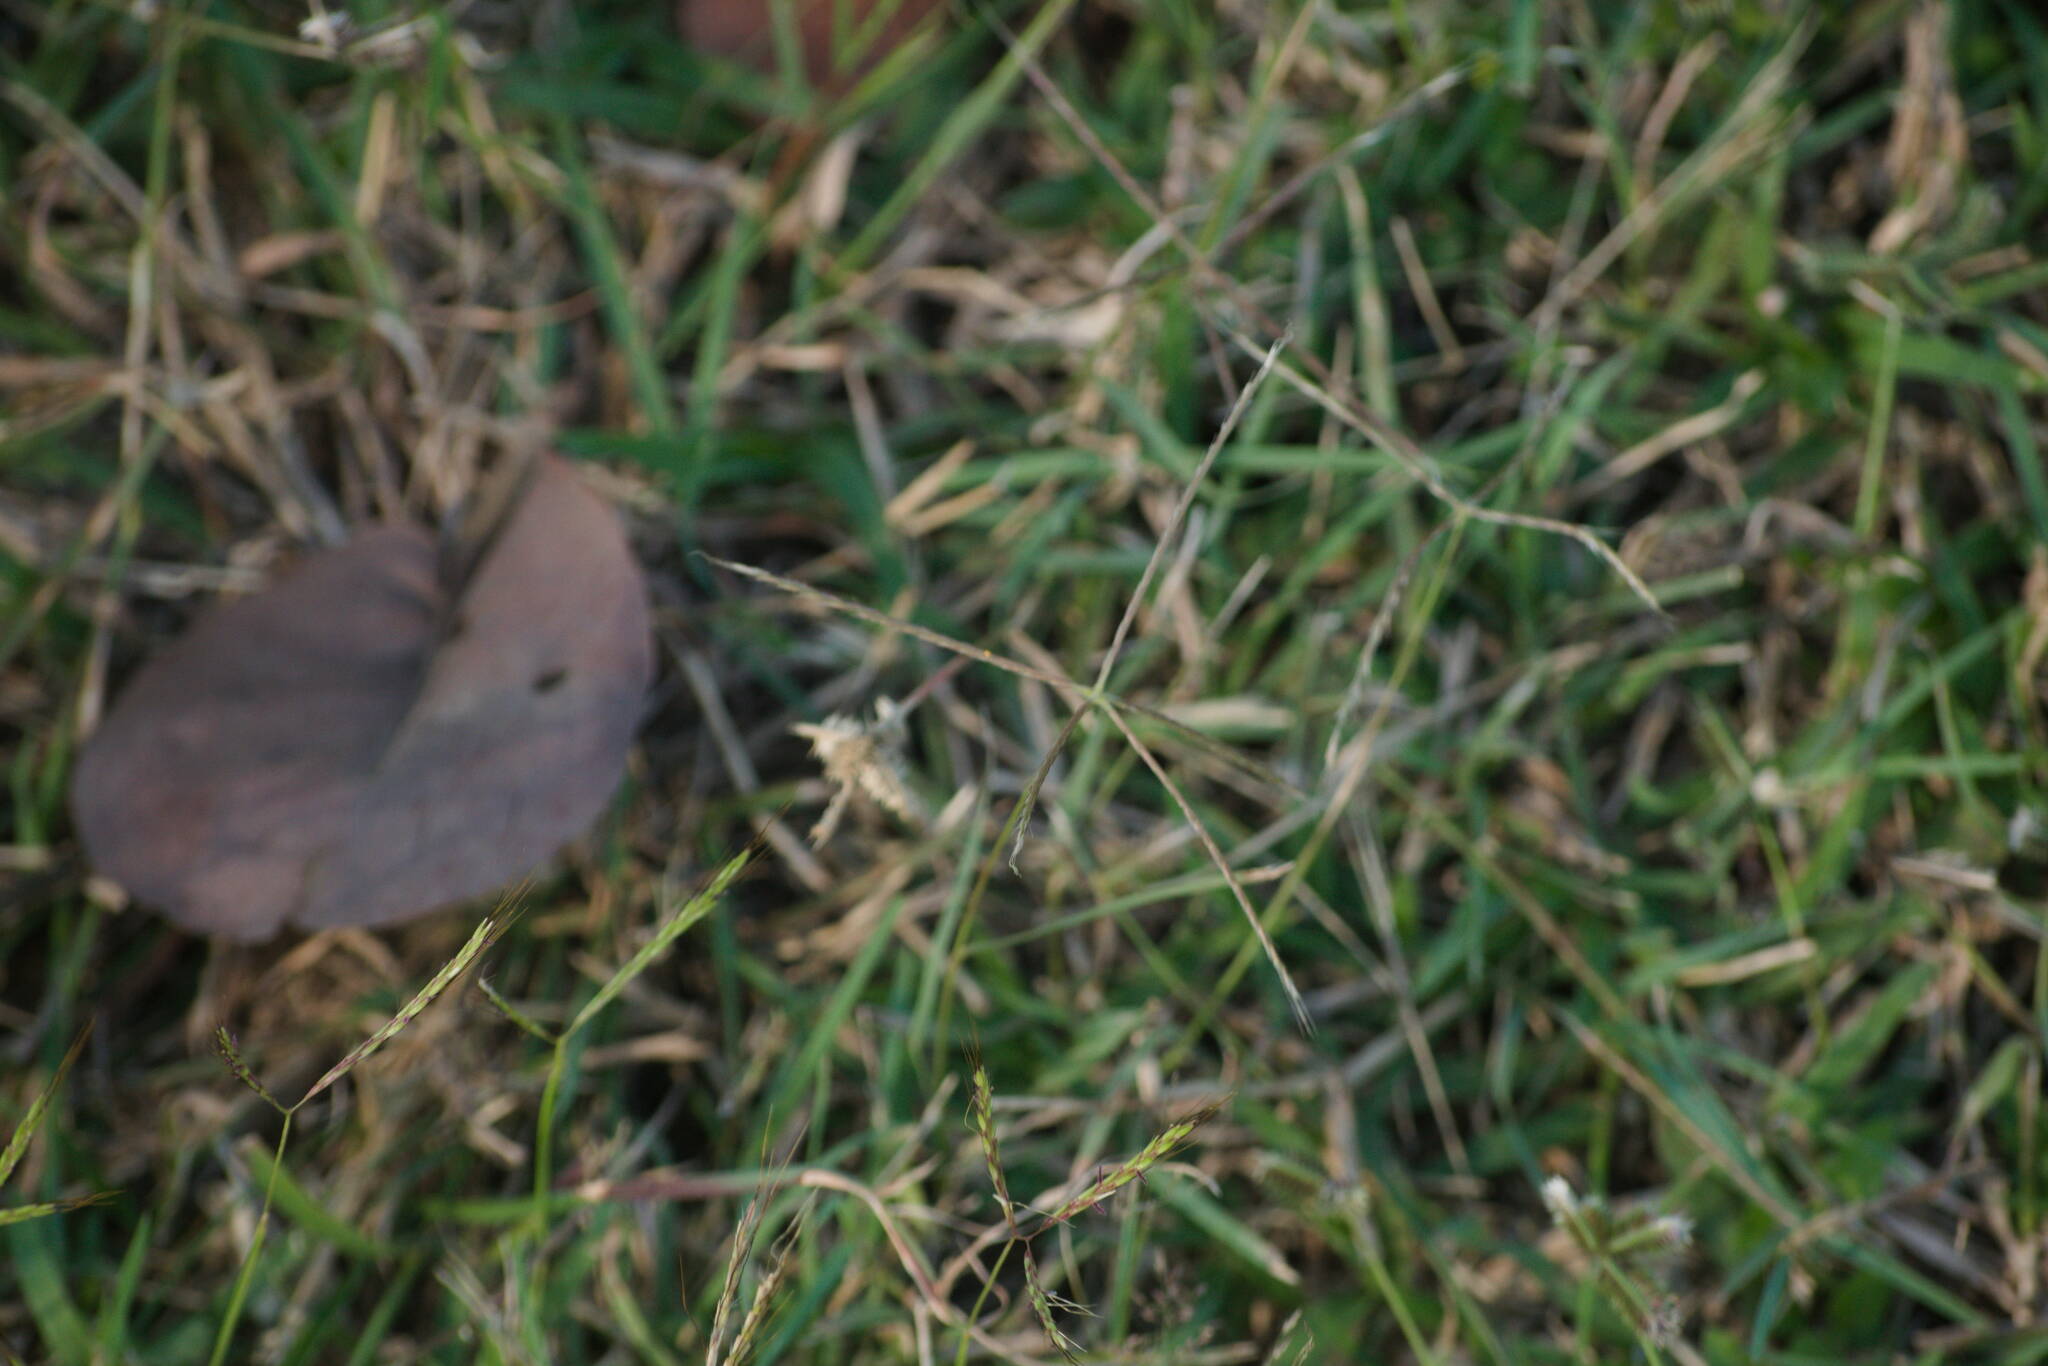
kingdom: Plantae
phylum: Tracheophyta
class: Liliopsida
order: Poales
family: Poaceae
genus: Chloris
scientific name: Chloris divaricata
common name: Spreading windmill grass
